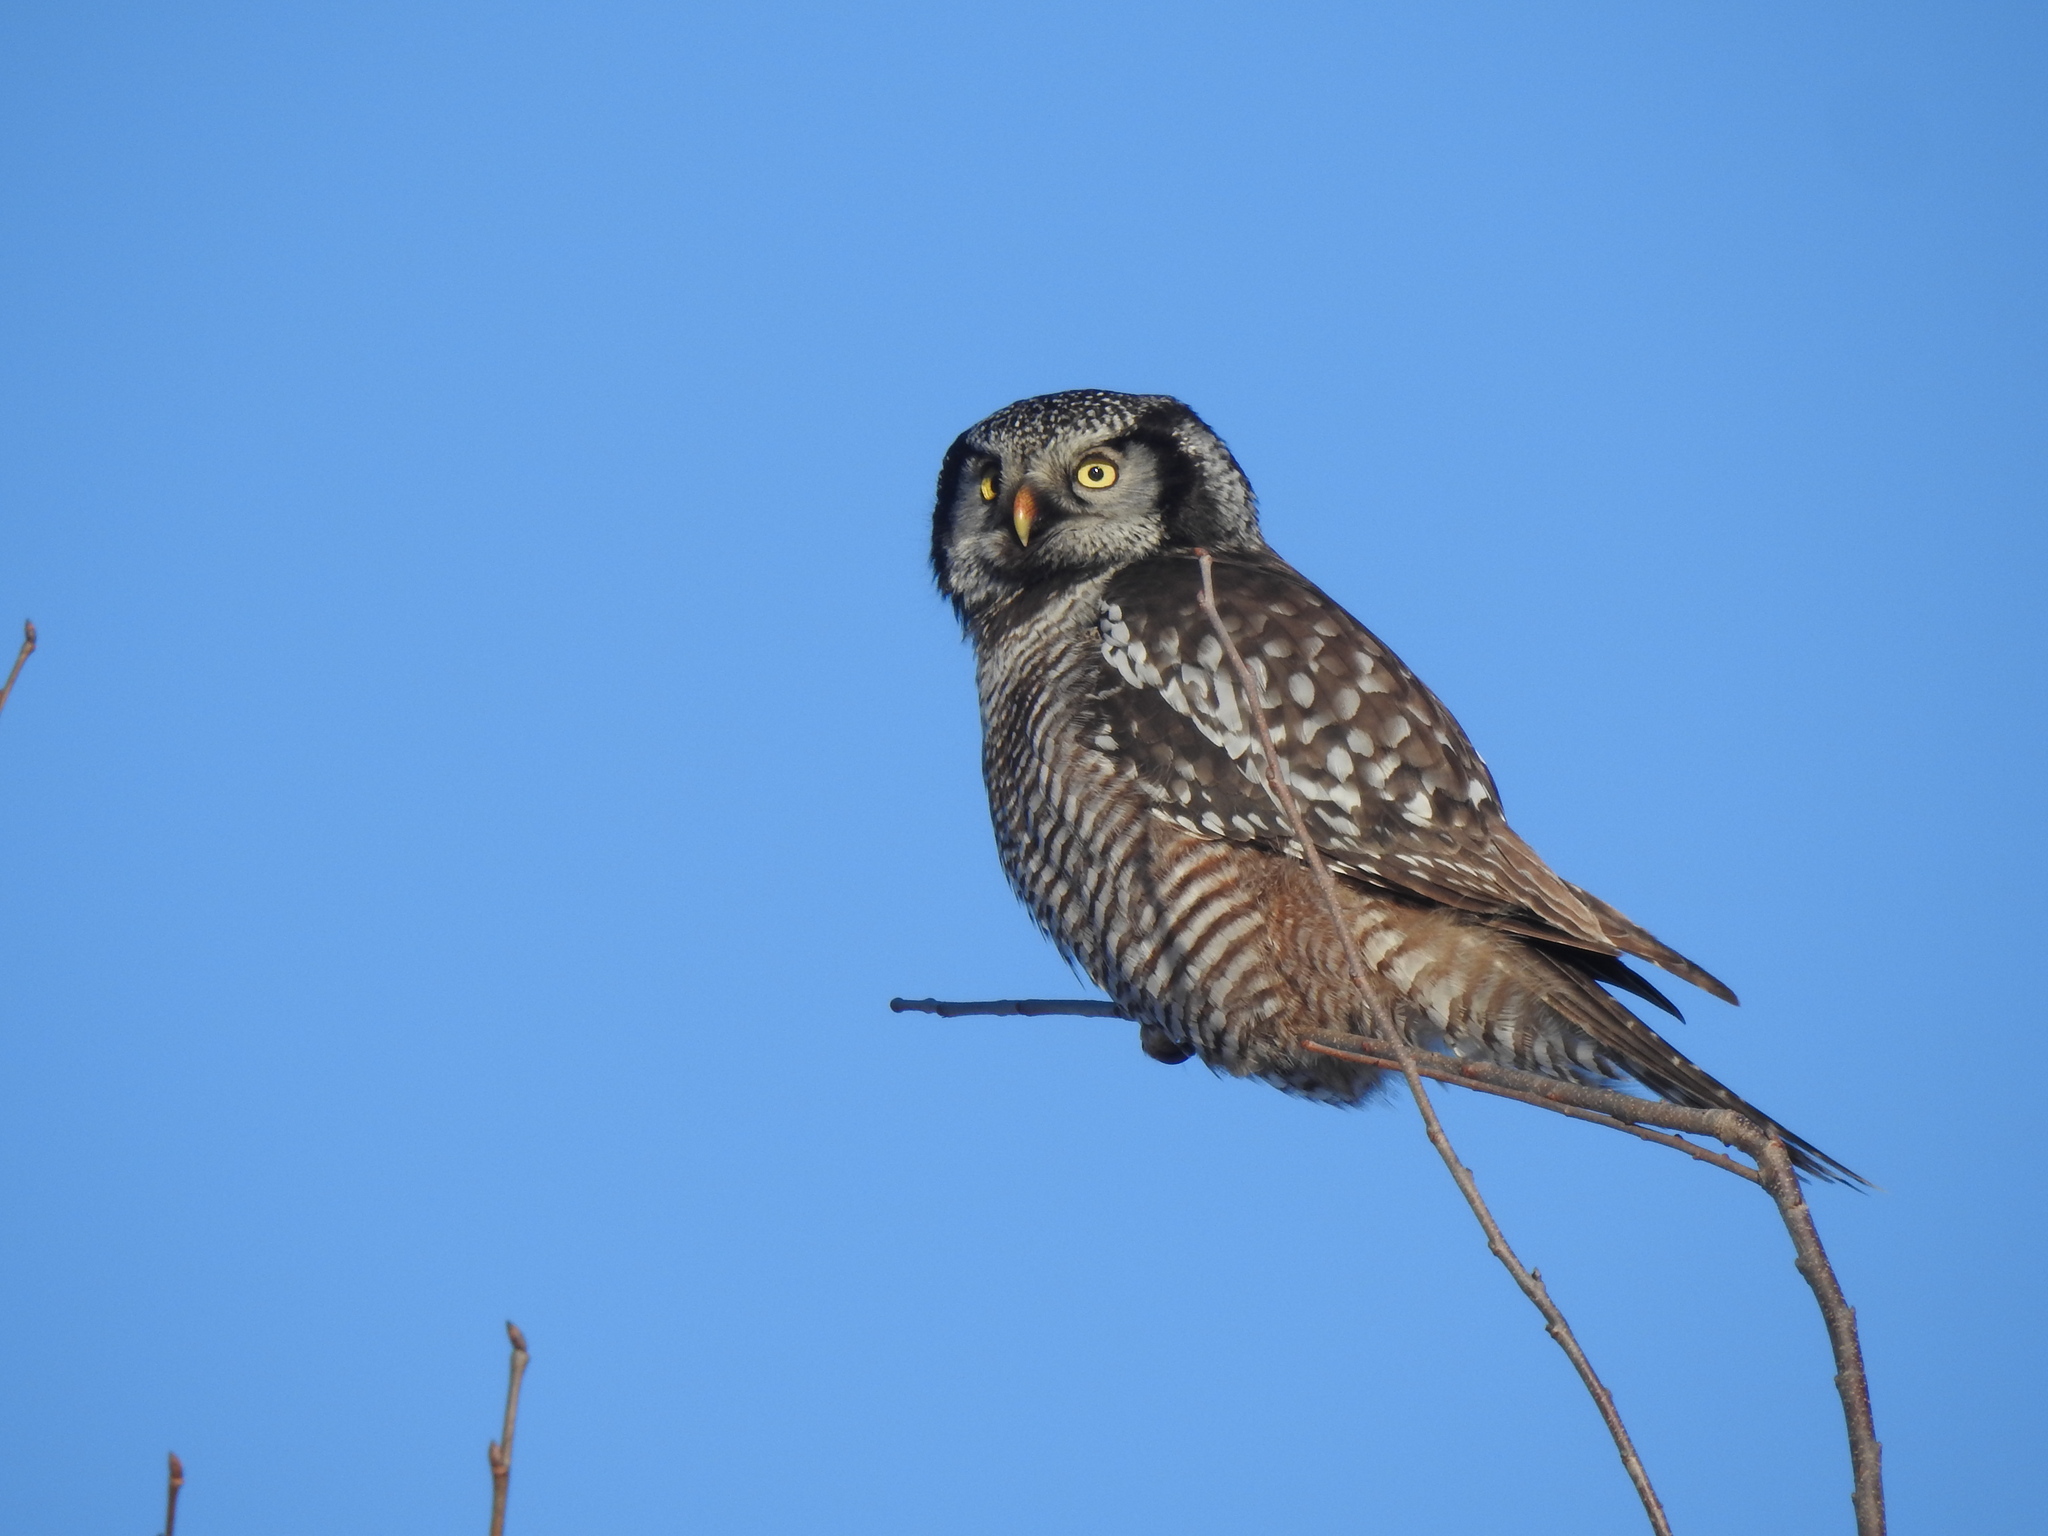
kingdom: Animalia
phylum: Chordata
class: Aves
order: Strigiformes
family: Strigidae
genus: Surnia
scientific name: Surnia ulula
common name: Northern hawk-owl
